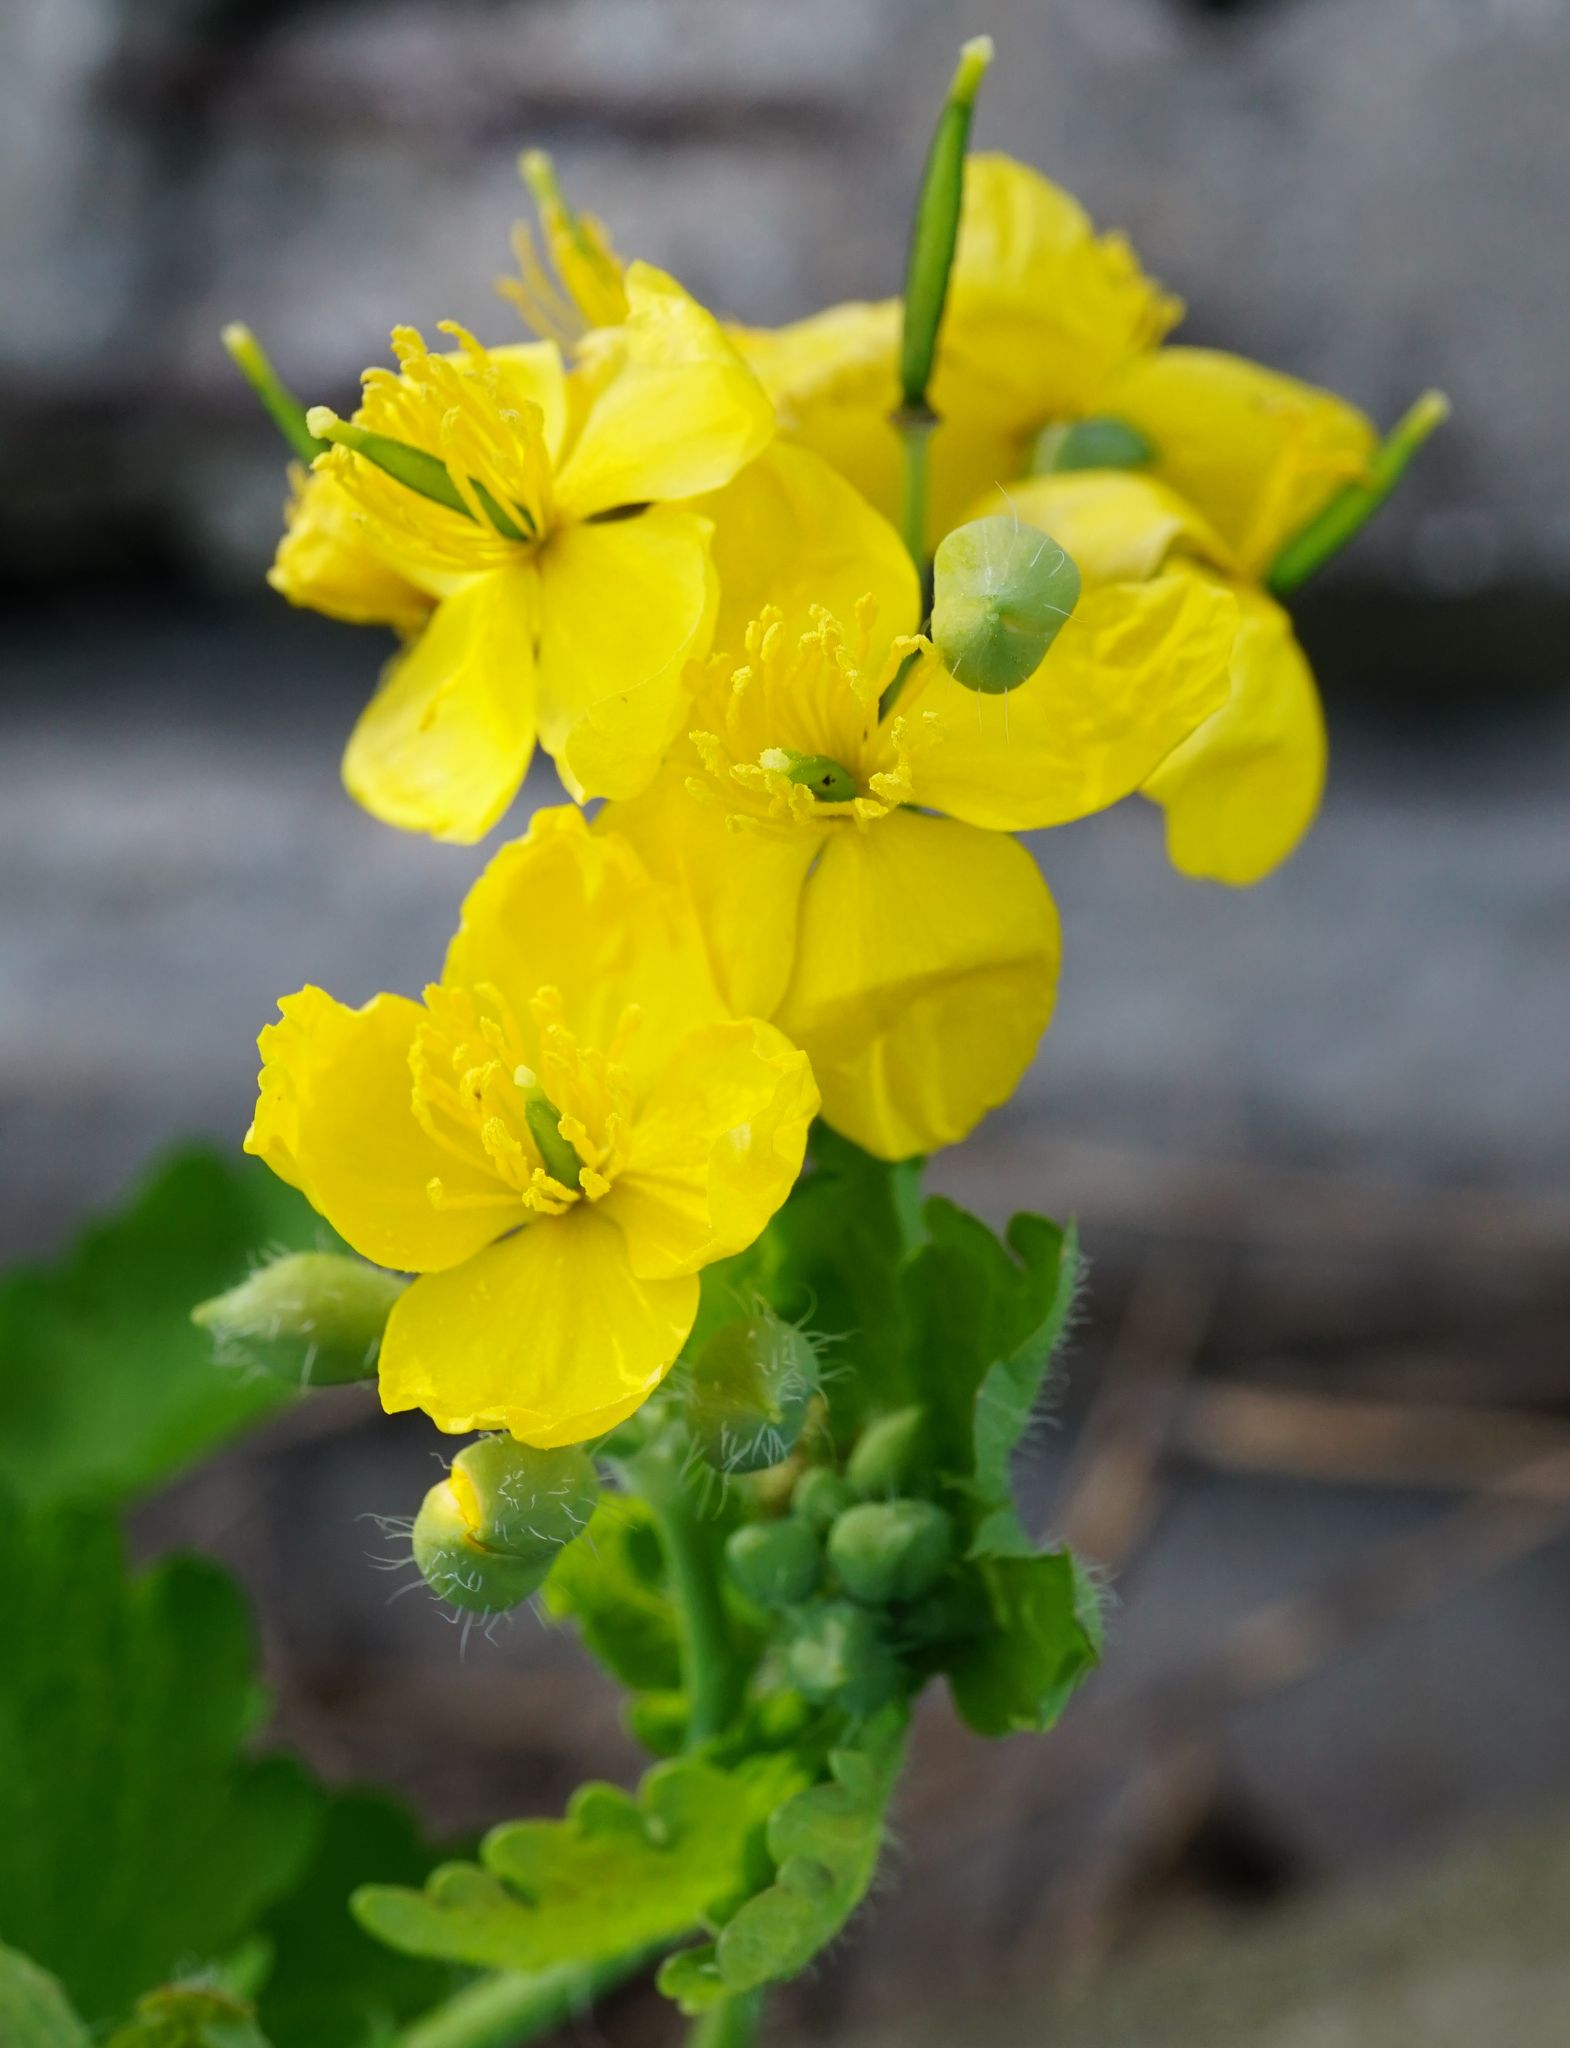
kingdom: Plantae
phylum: Tracheophyta
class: Magnoliopsida
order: Ranunculales
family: Papaveraceae
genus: Chelidonium
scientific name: Chelidonium majus
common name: Greater celandine
